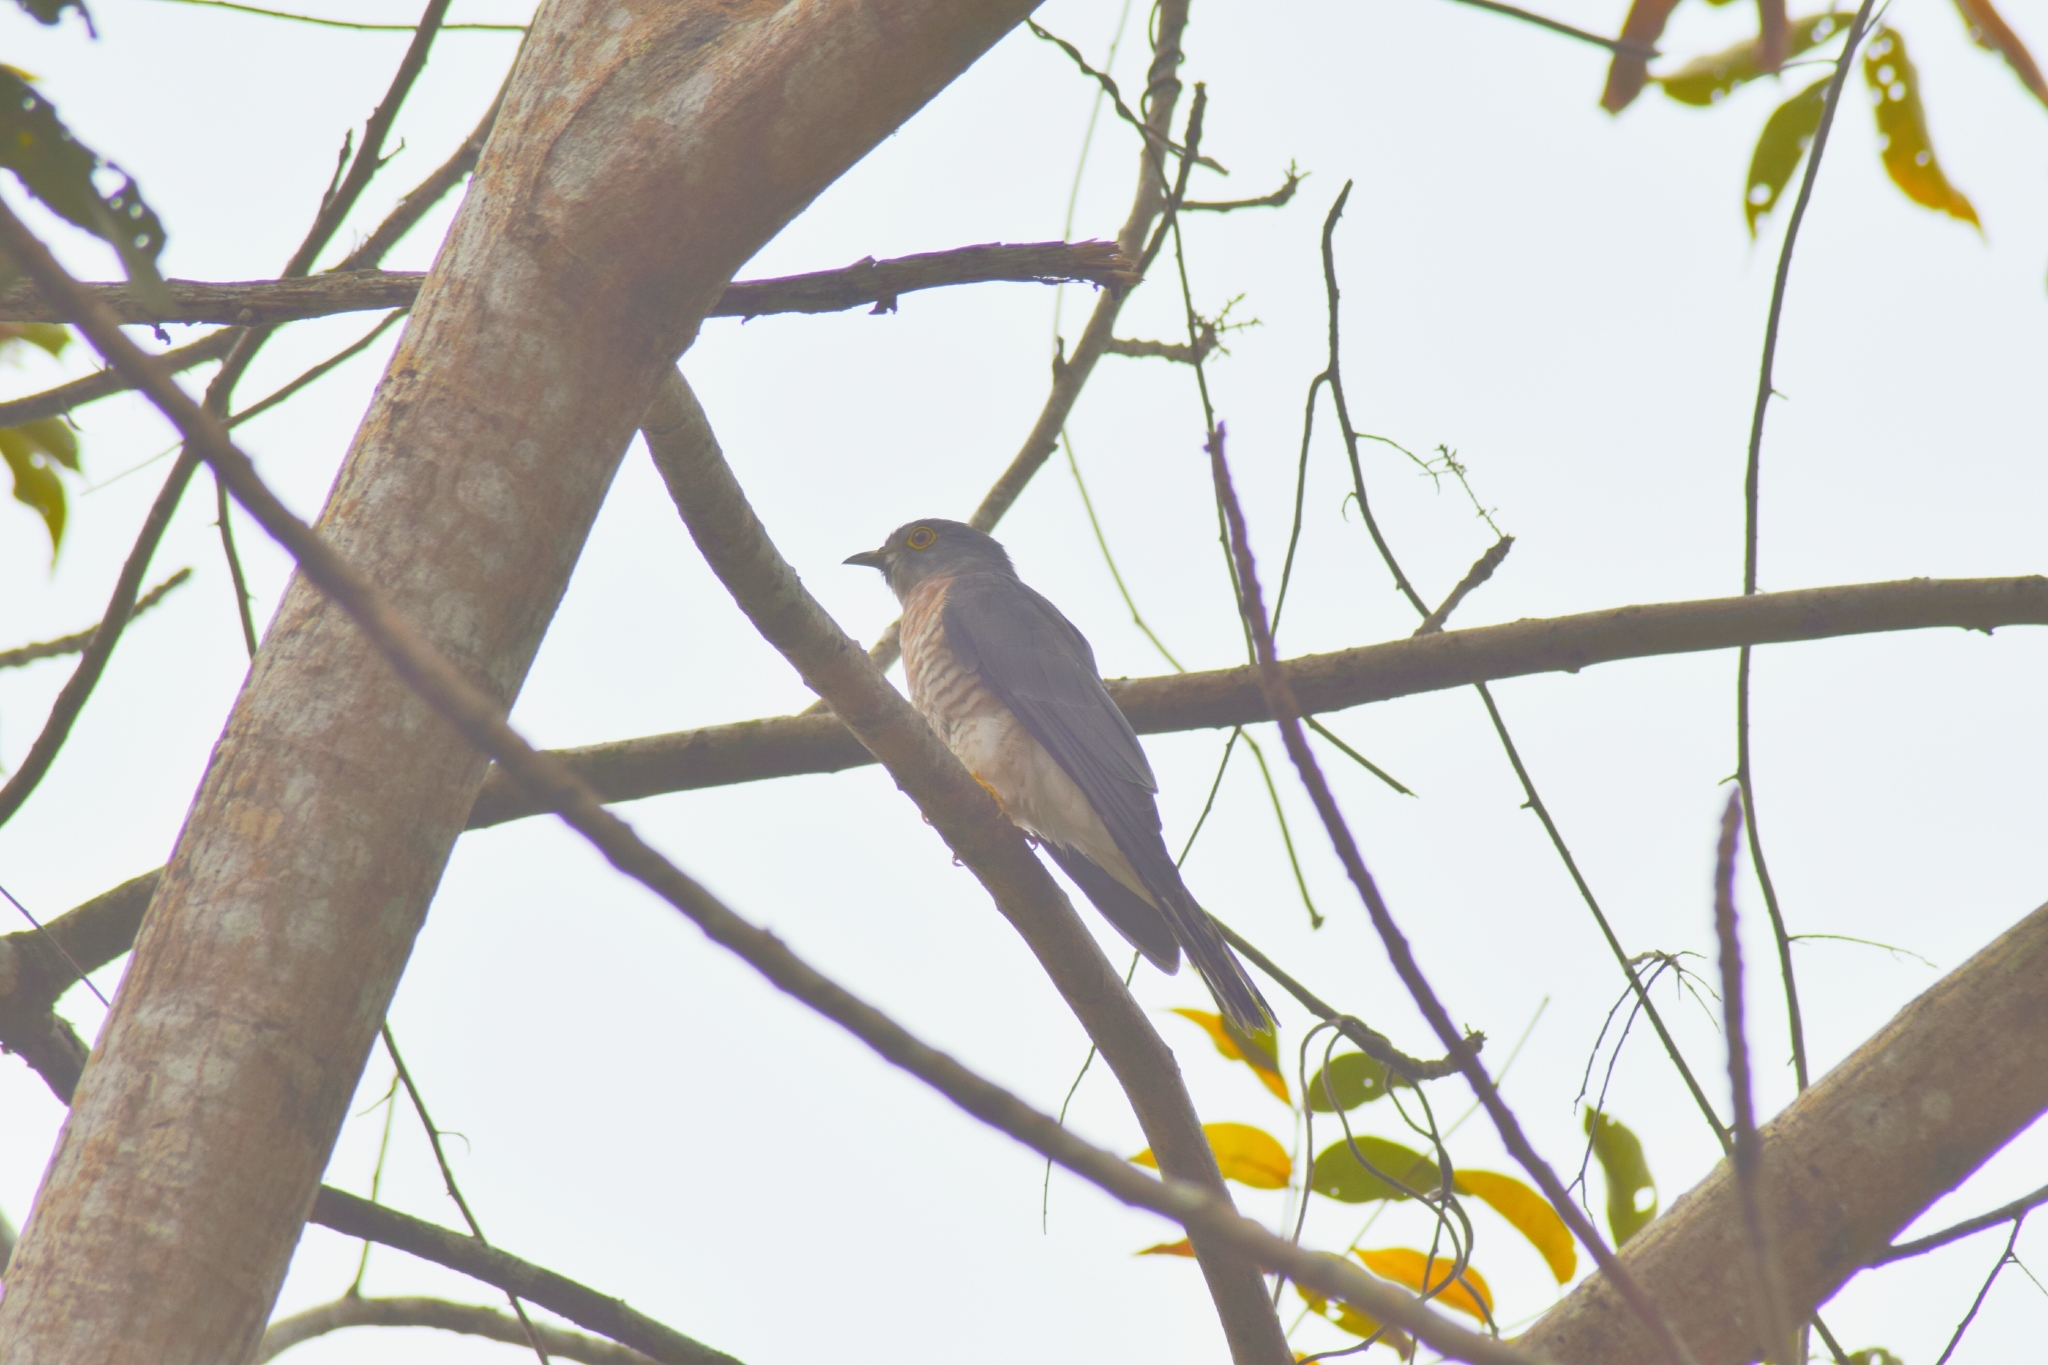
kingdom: Animalia
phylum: Chordata
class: Aves
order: Cuculiformes
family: Cuculidae
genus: Cuculus
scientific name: Cuculus varius
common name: Common hawk cuckoo
